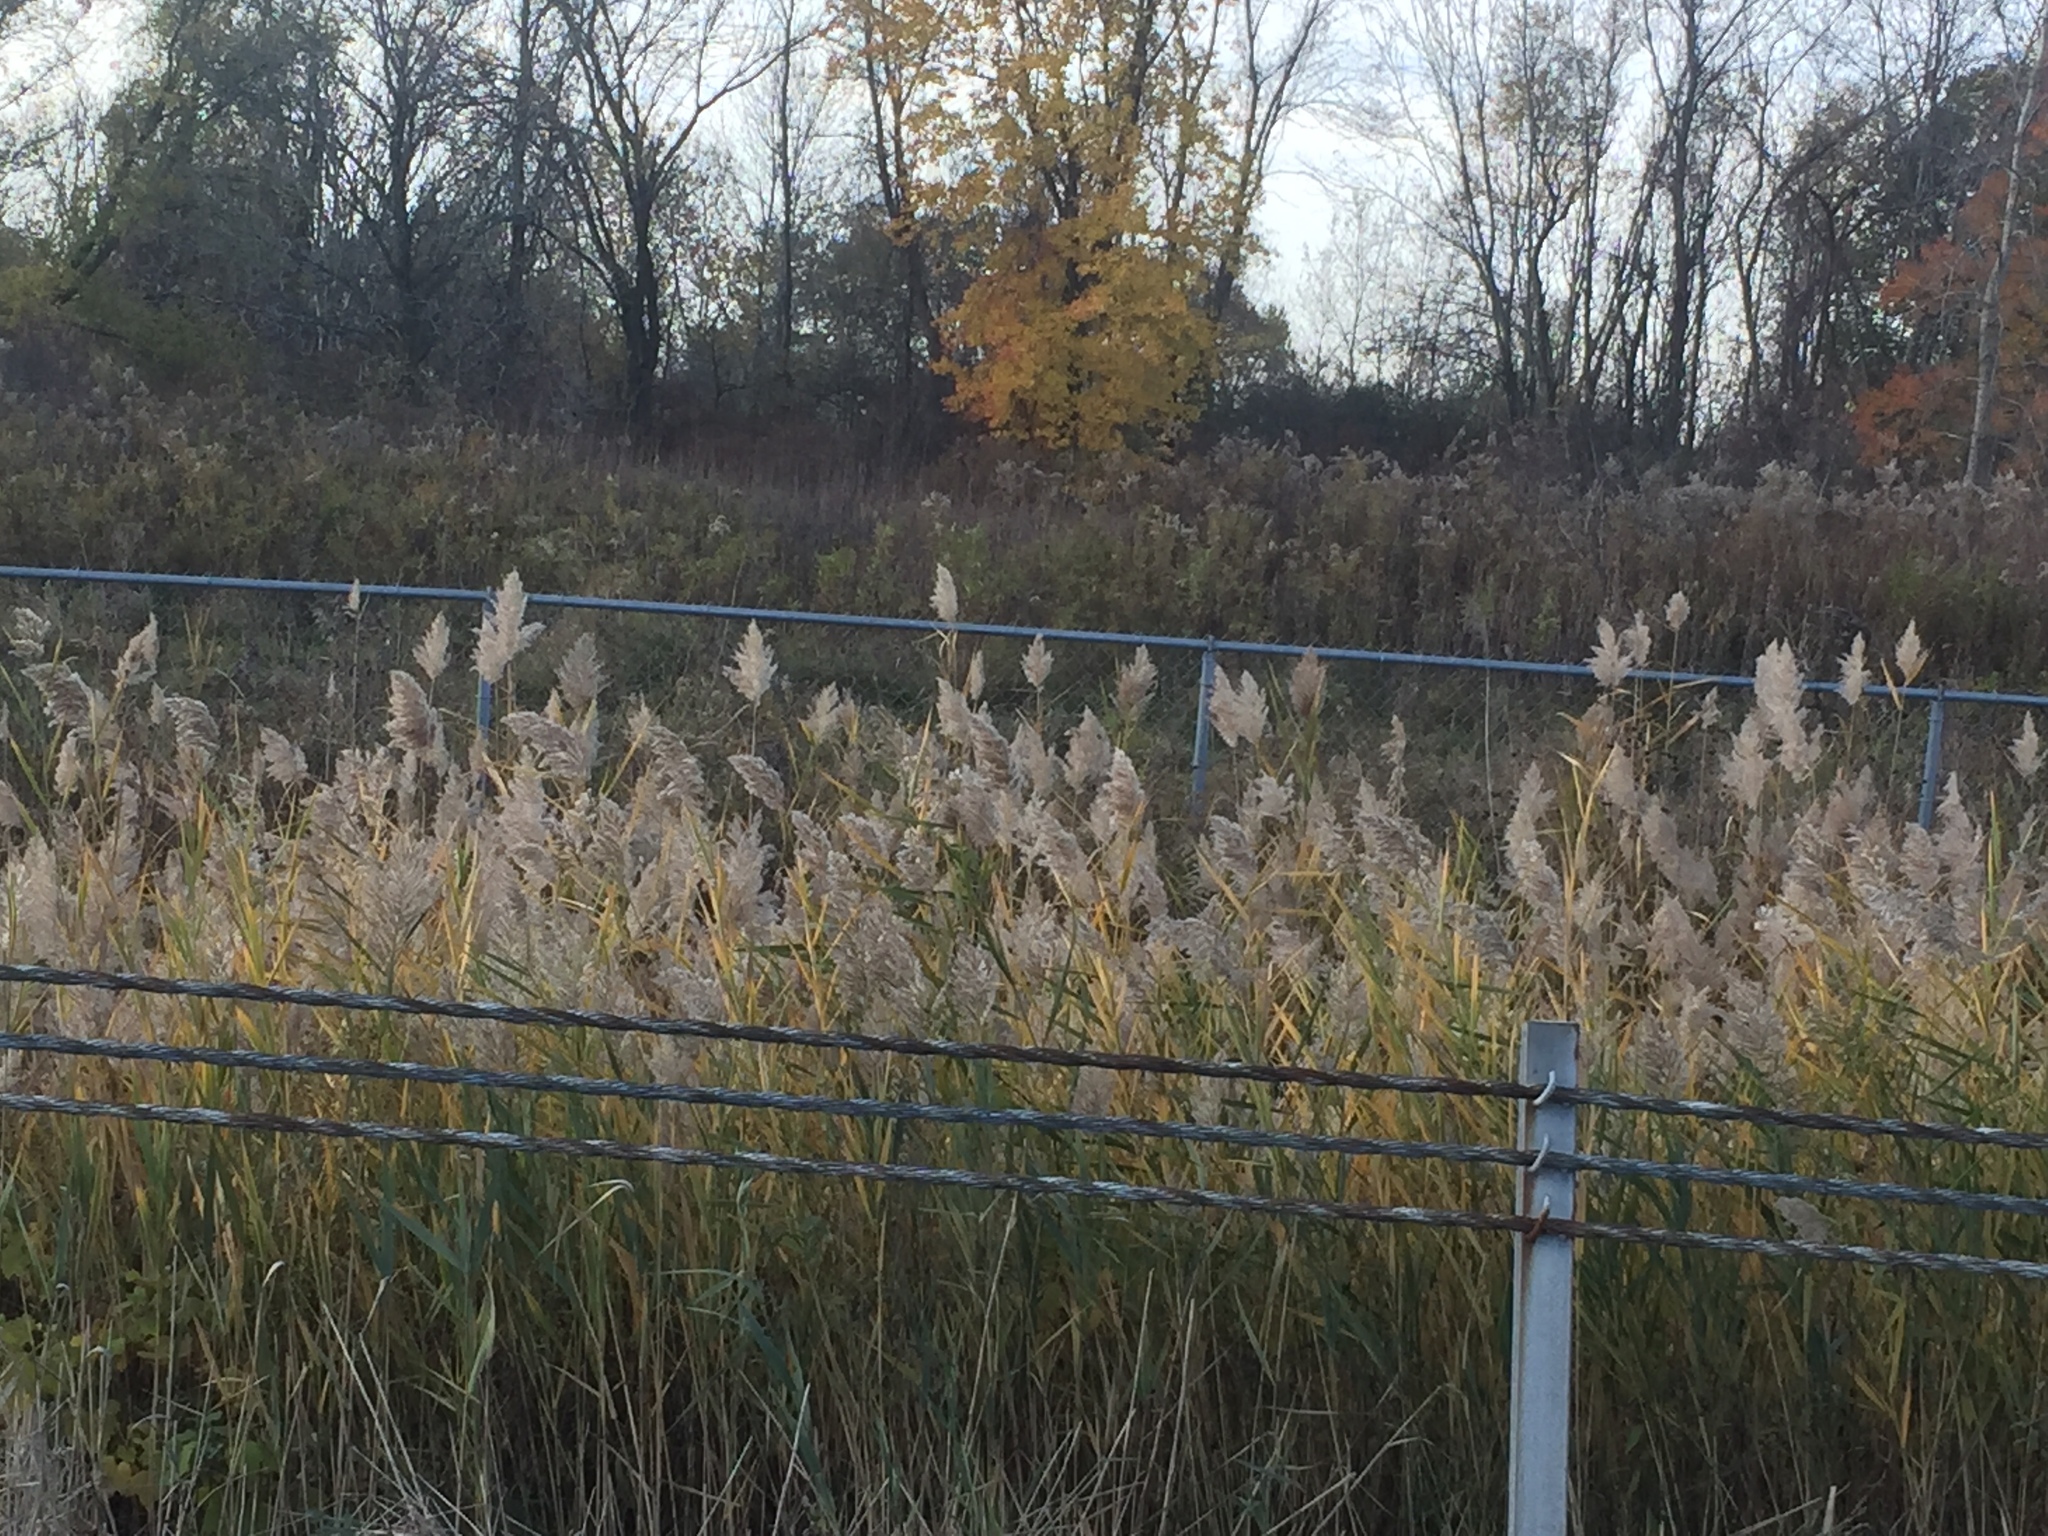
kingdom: Plantae
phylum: Tracheophyta
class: Liliopsida
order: Poales
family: Poaceae
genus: Phragmites
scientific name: Phragmites australis
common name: Common reed
